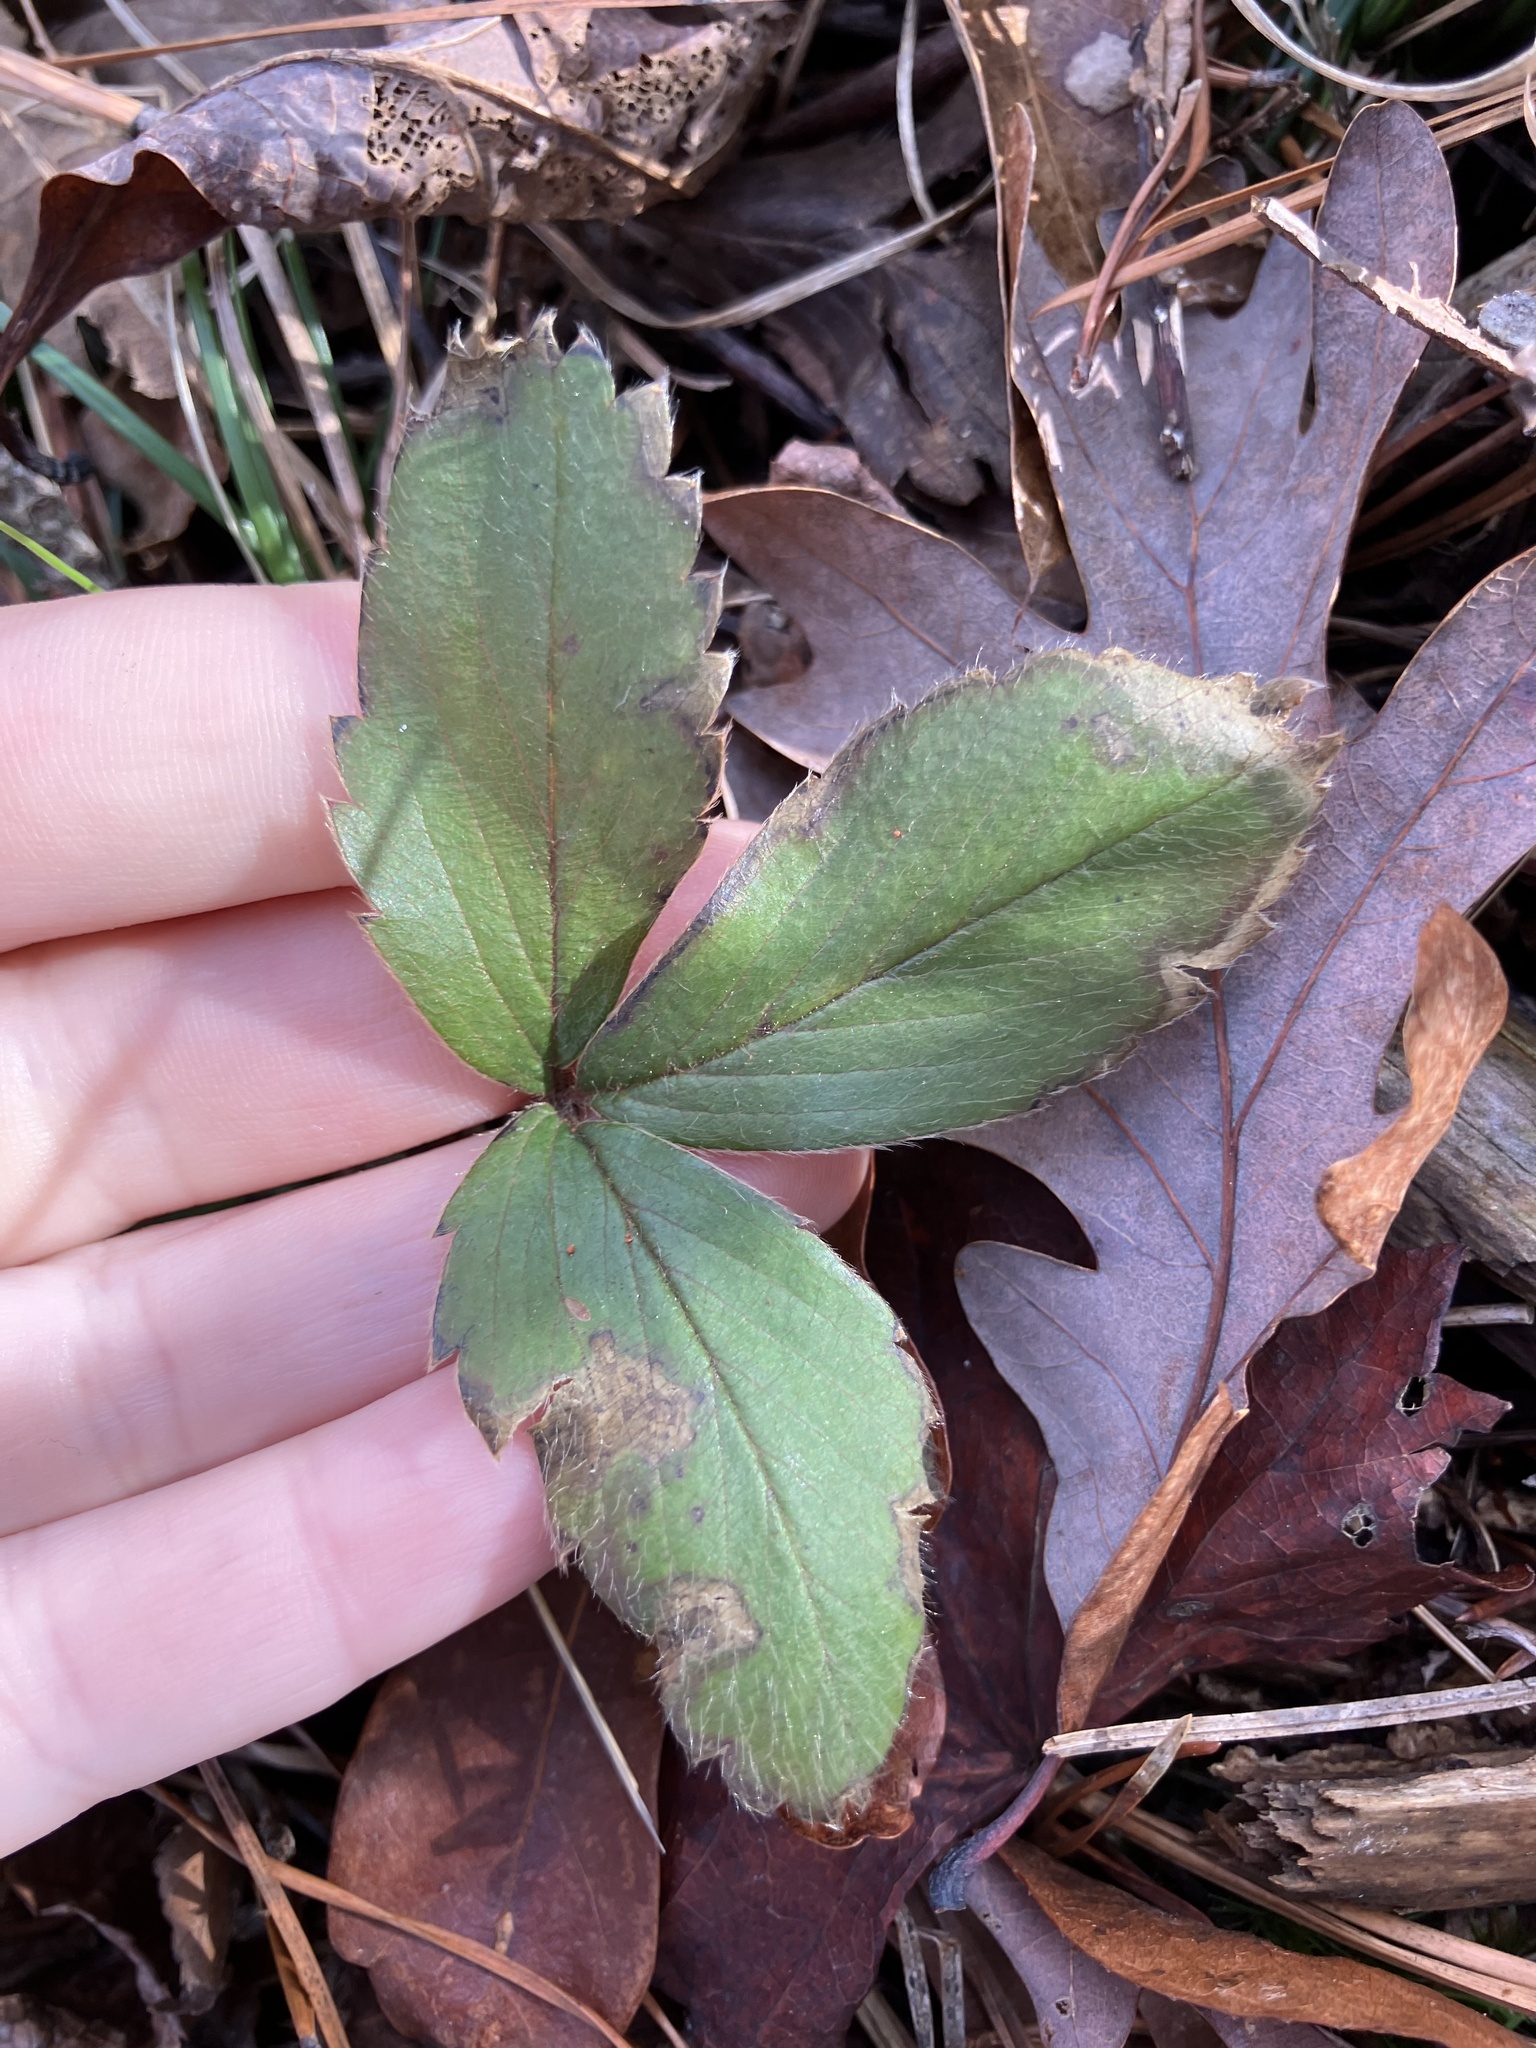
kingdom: Plantae
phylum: Tracheophyta
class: Magnoliopsida
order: Rosales
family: Rosaceae
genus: Fragaria
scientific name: Fragaria virginiana
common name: Thickleaved wild strawberry
